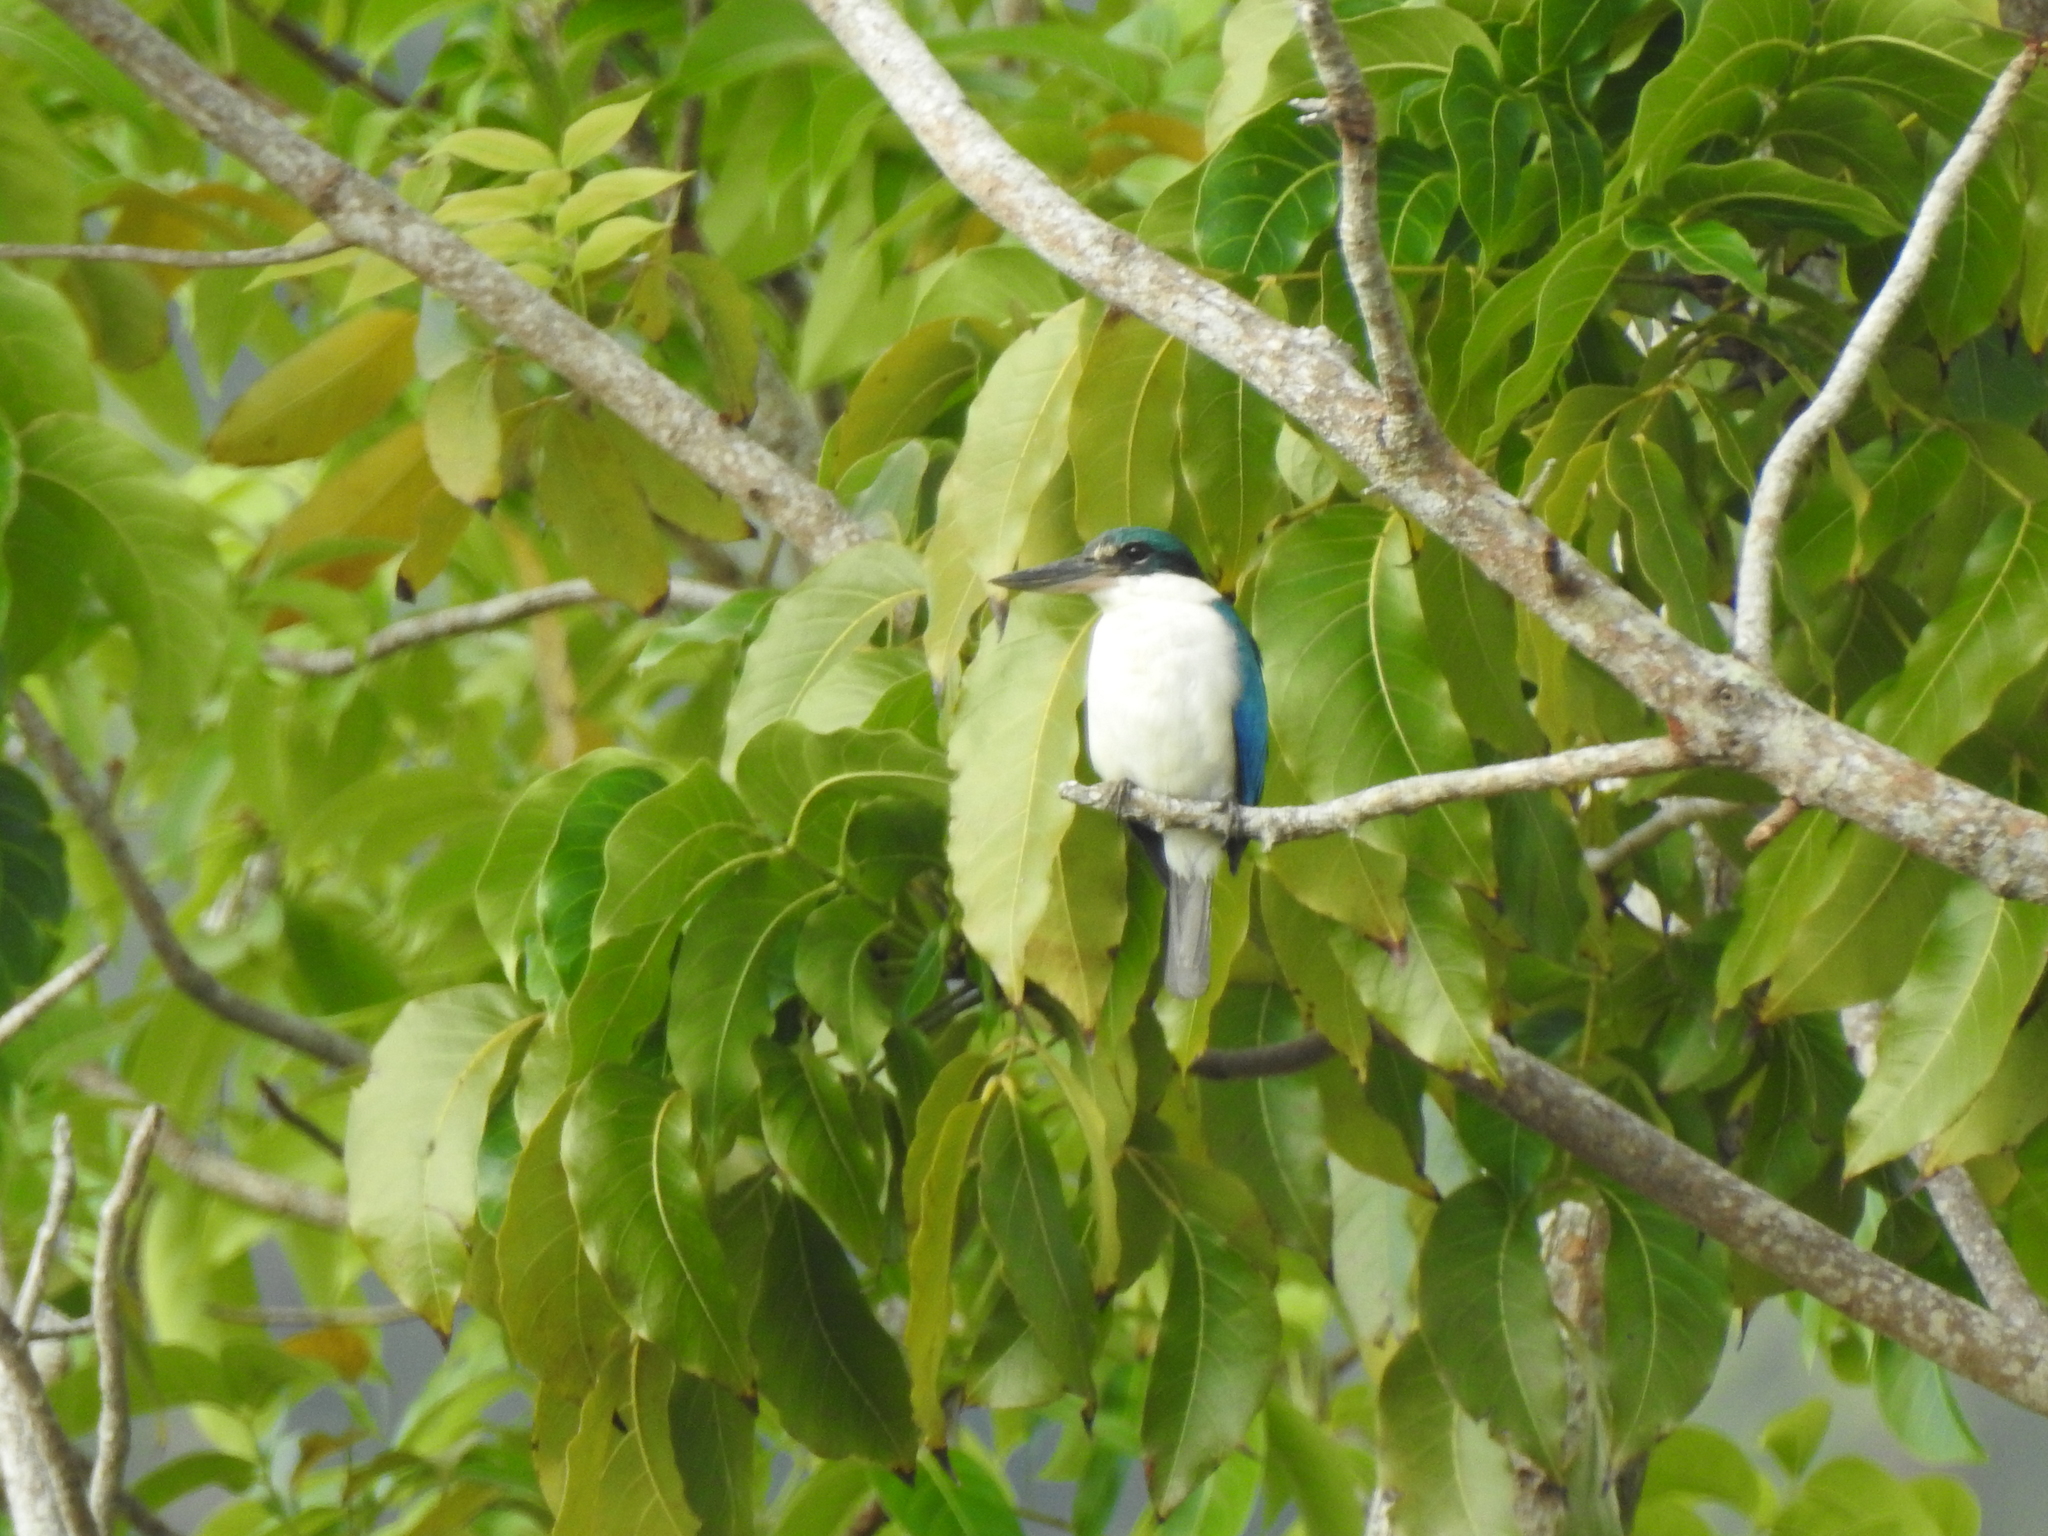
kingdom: Animalia
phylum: Chordata
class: Aves
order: Coraciiformes
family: Alcedinidae
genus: Todiramphus
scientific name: Todiramphus chloris
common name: Collared kingfisher
